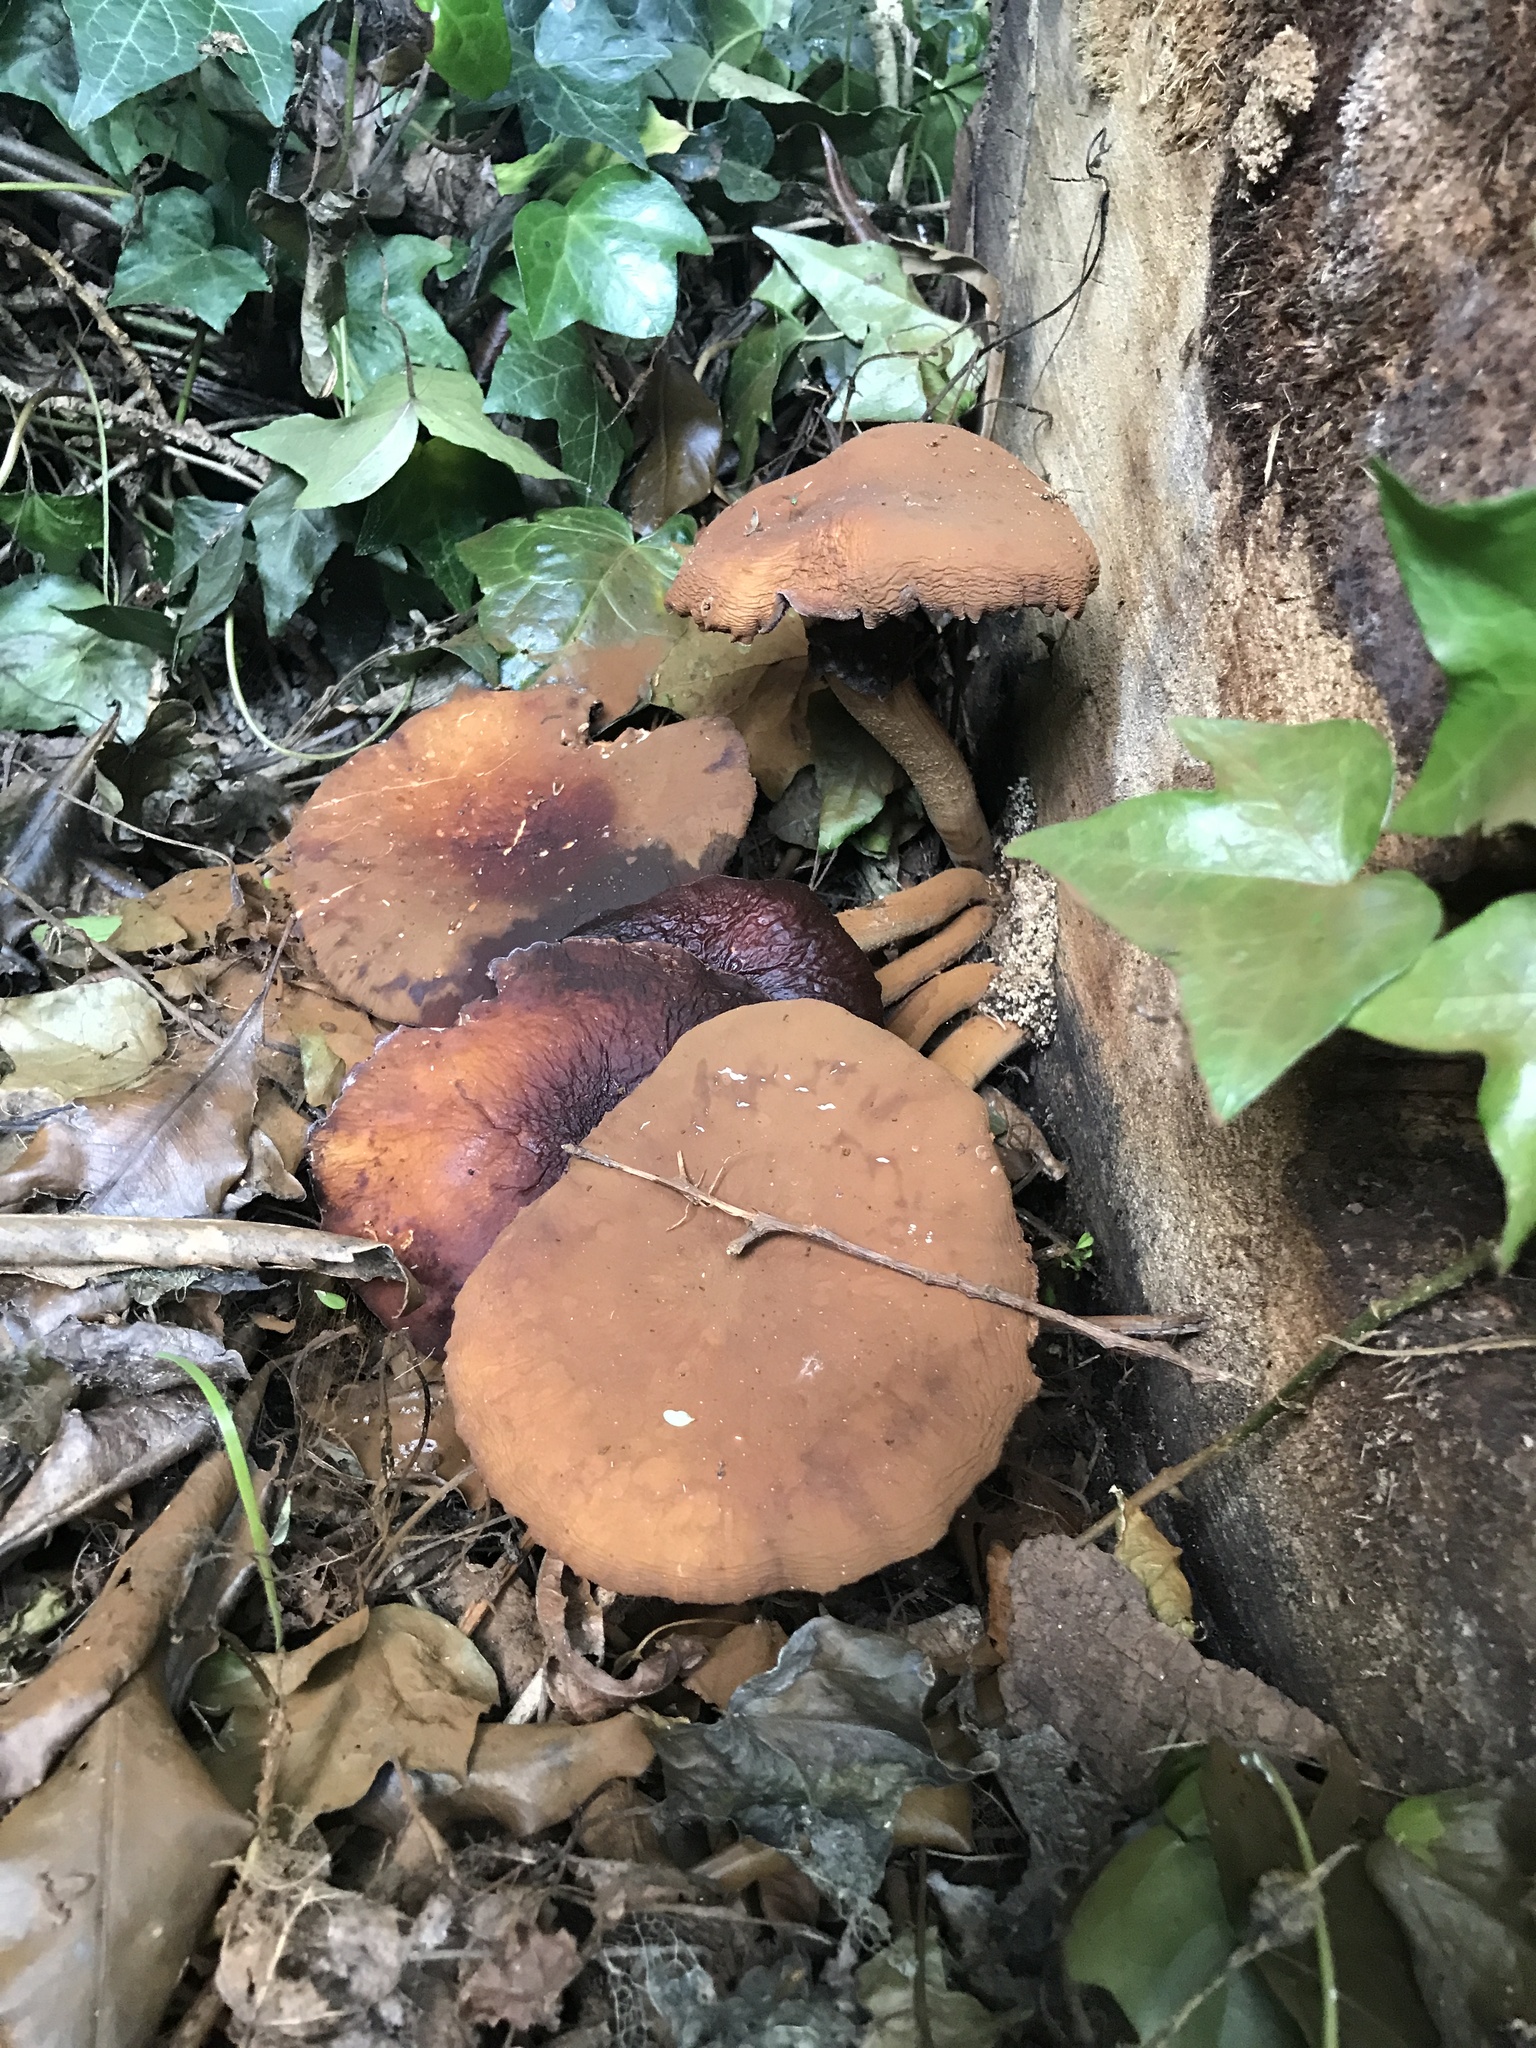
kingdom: Fungi
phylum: Basidiomycota
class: Agaricomycetes
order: Agaricales
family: Tubariaceae
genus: Cyclocybe
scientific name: Cyclocybe parasitica
